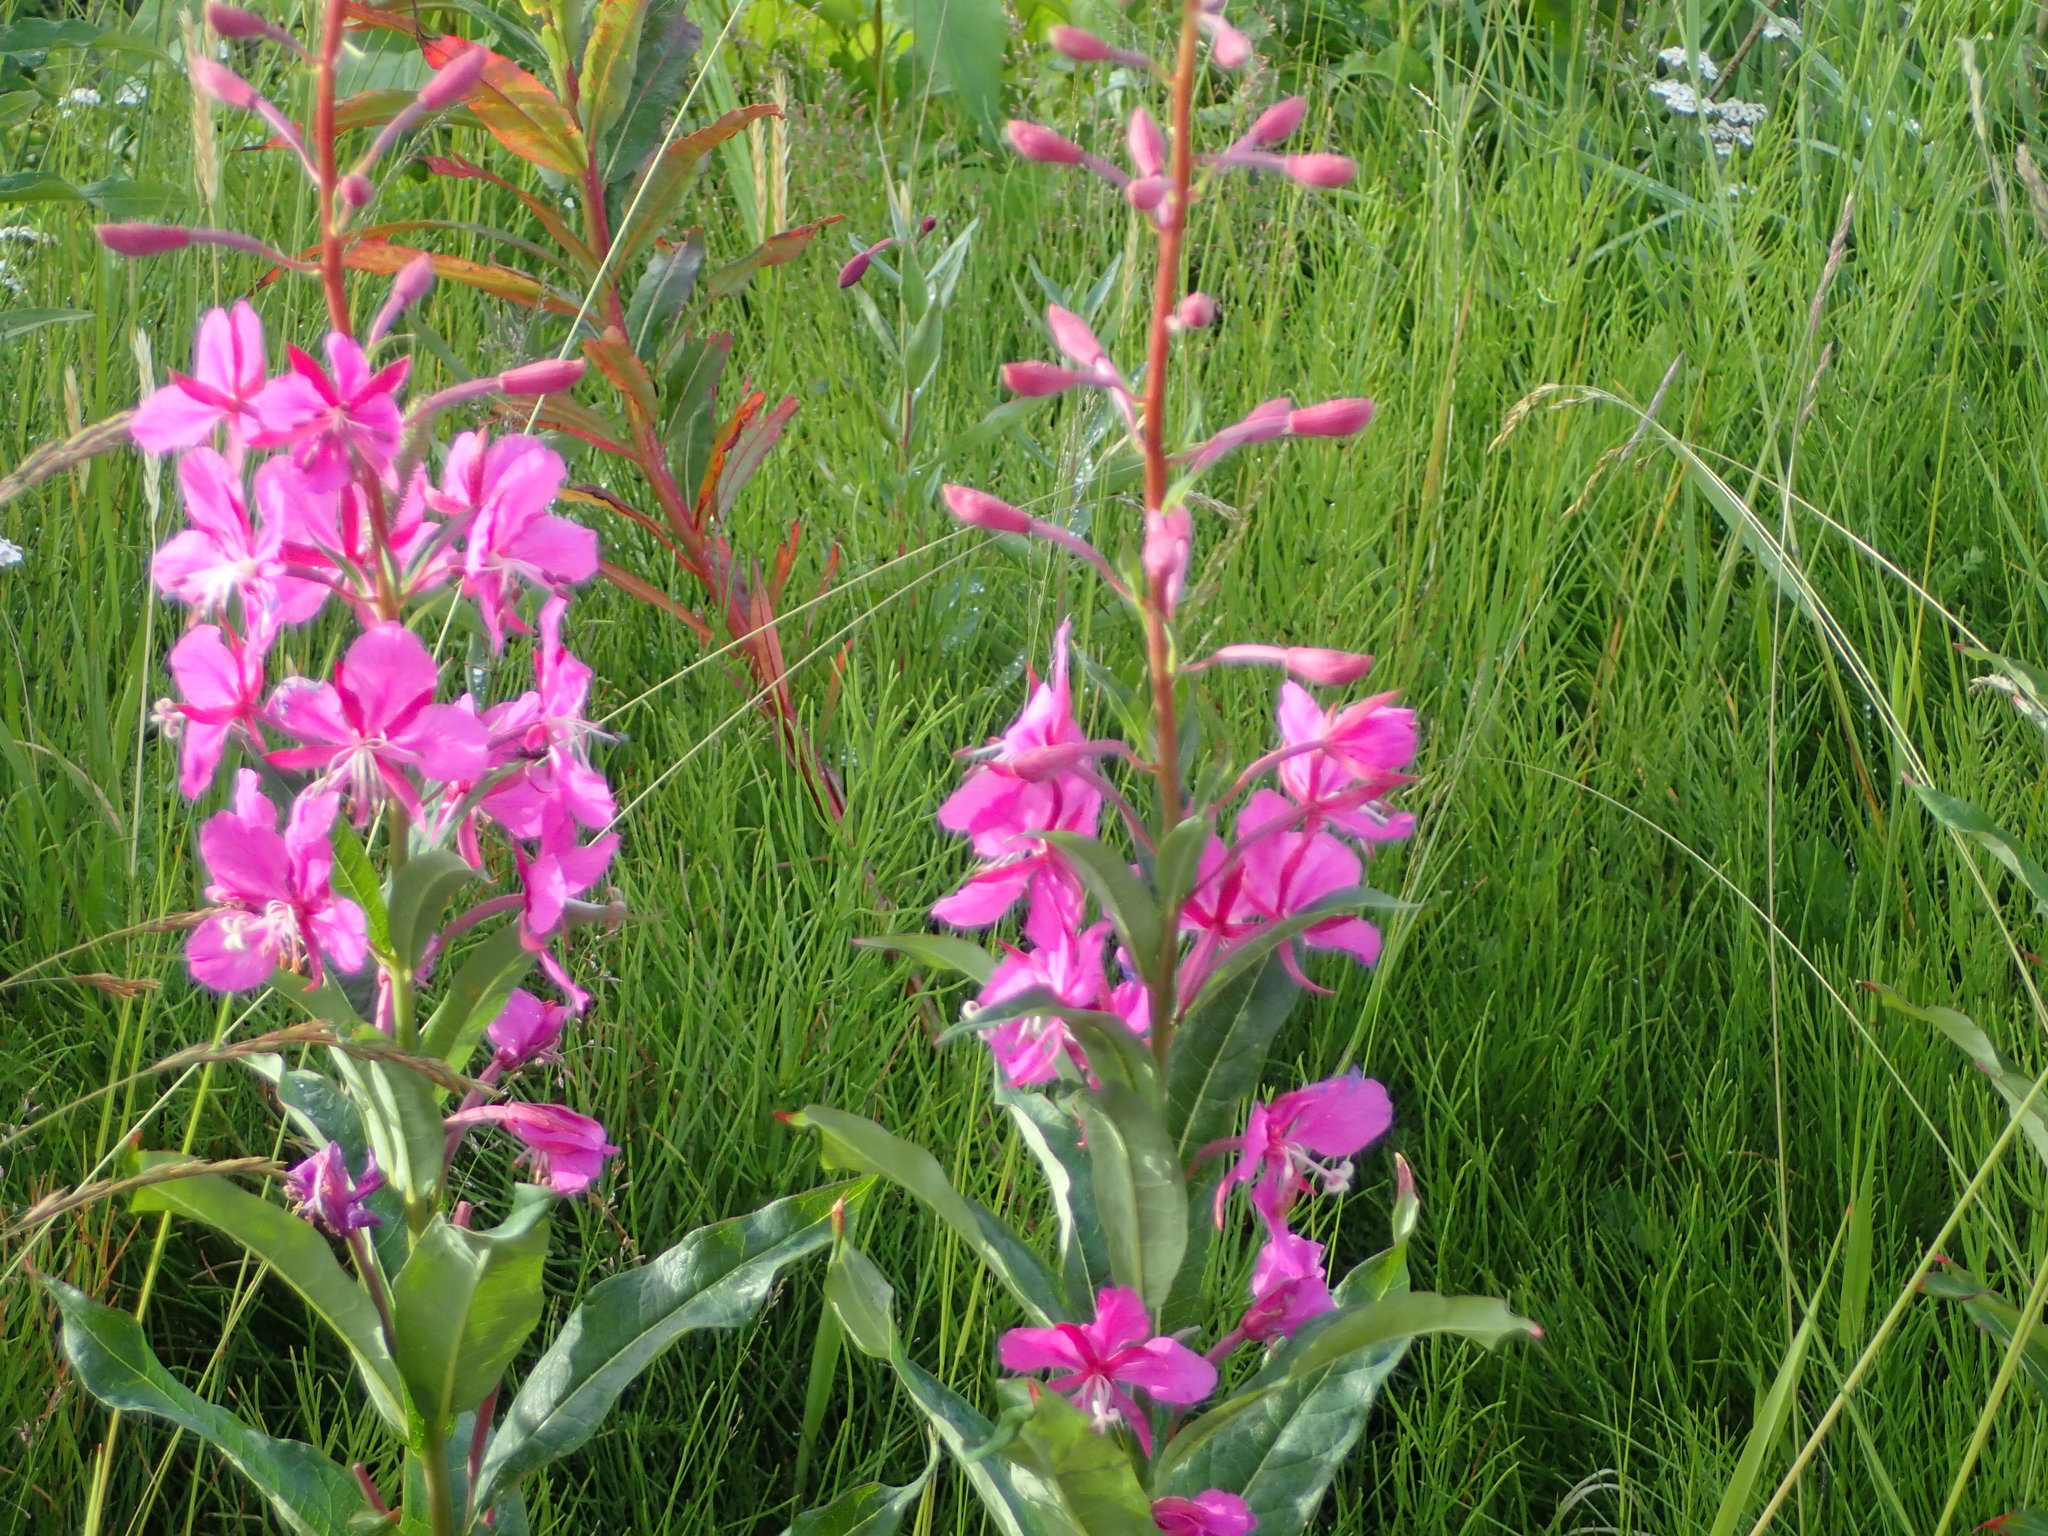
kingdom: Plantae
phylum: Tracheophyta
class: Magnoliopsida
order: Myrtales
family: Onagraceae
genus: Chamaenerion
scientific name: Chamaenerion angustifolium
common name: Fireweed
